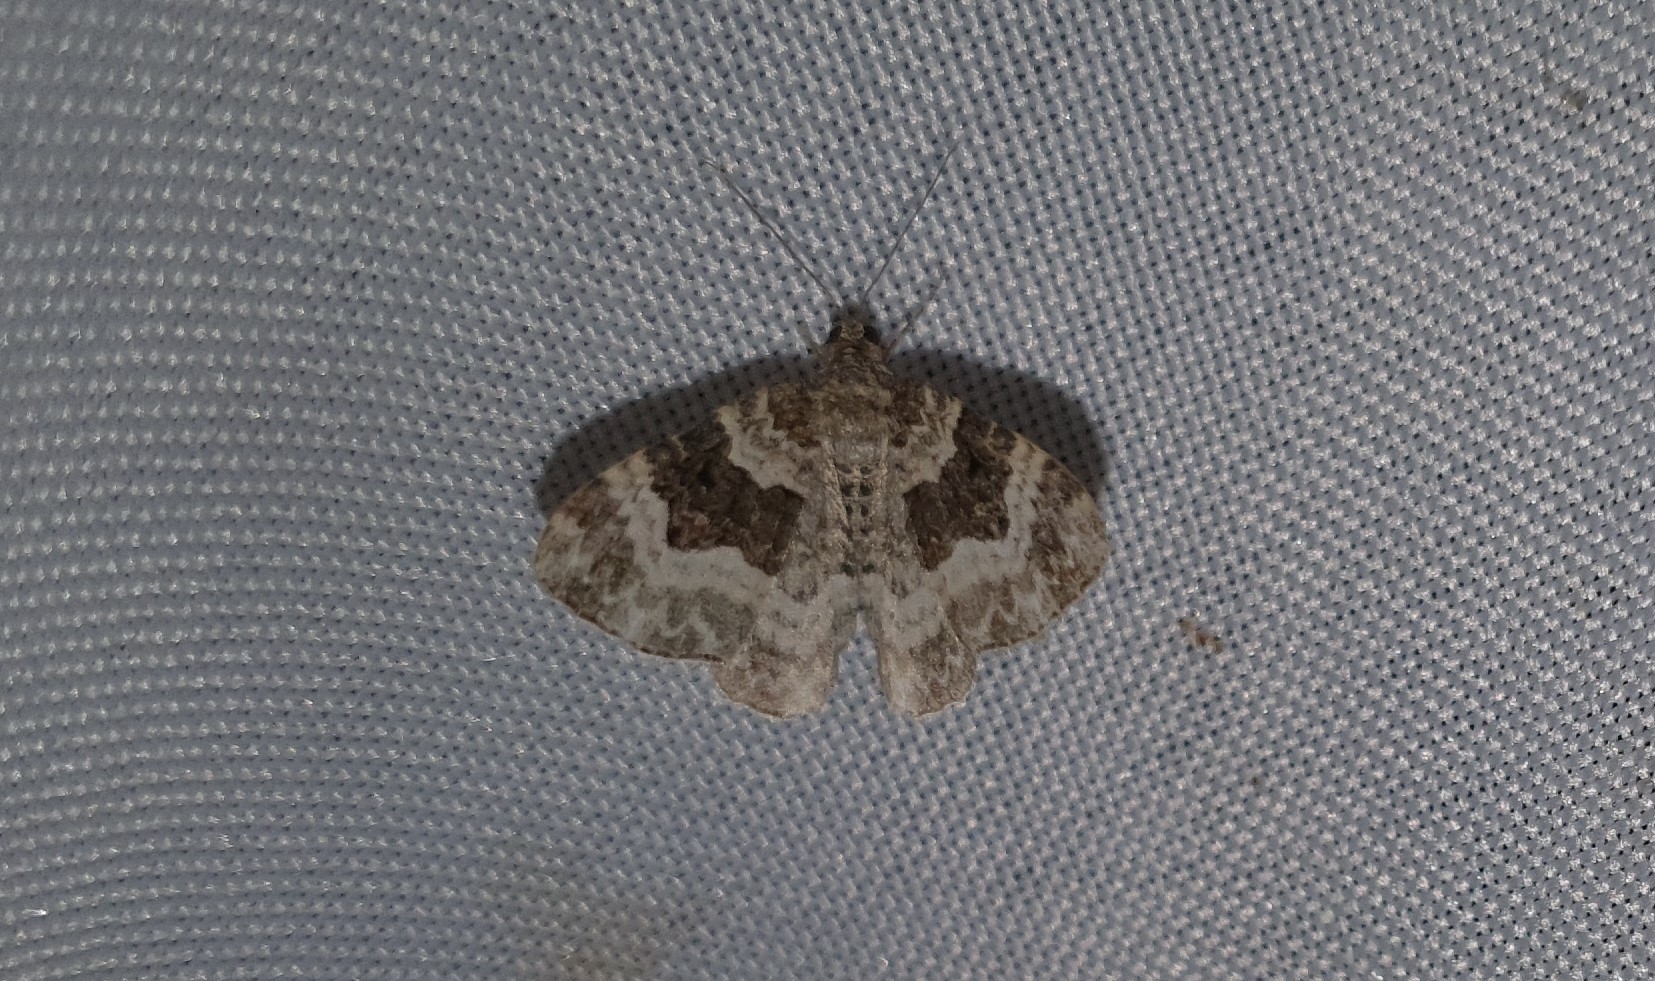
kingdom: Animalia
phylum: Arthropoda
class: Insecta
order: Lepidoptera
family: Geometridae
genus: Epirrhoe
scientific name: Epirrhoe alternata
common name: Common carpet
